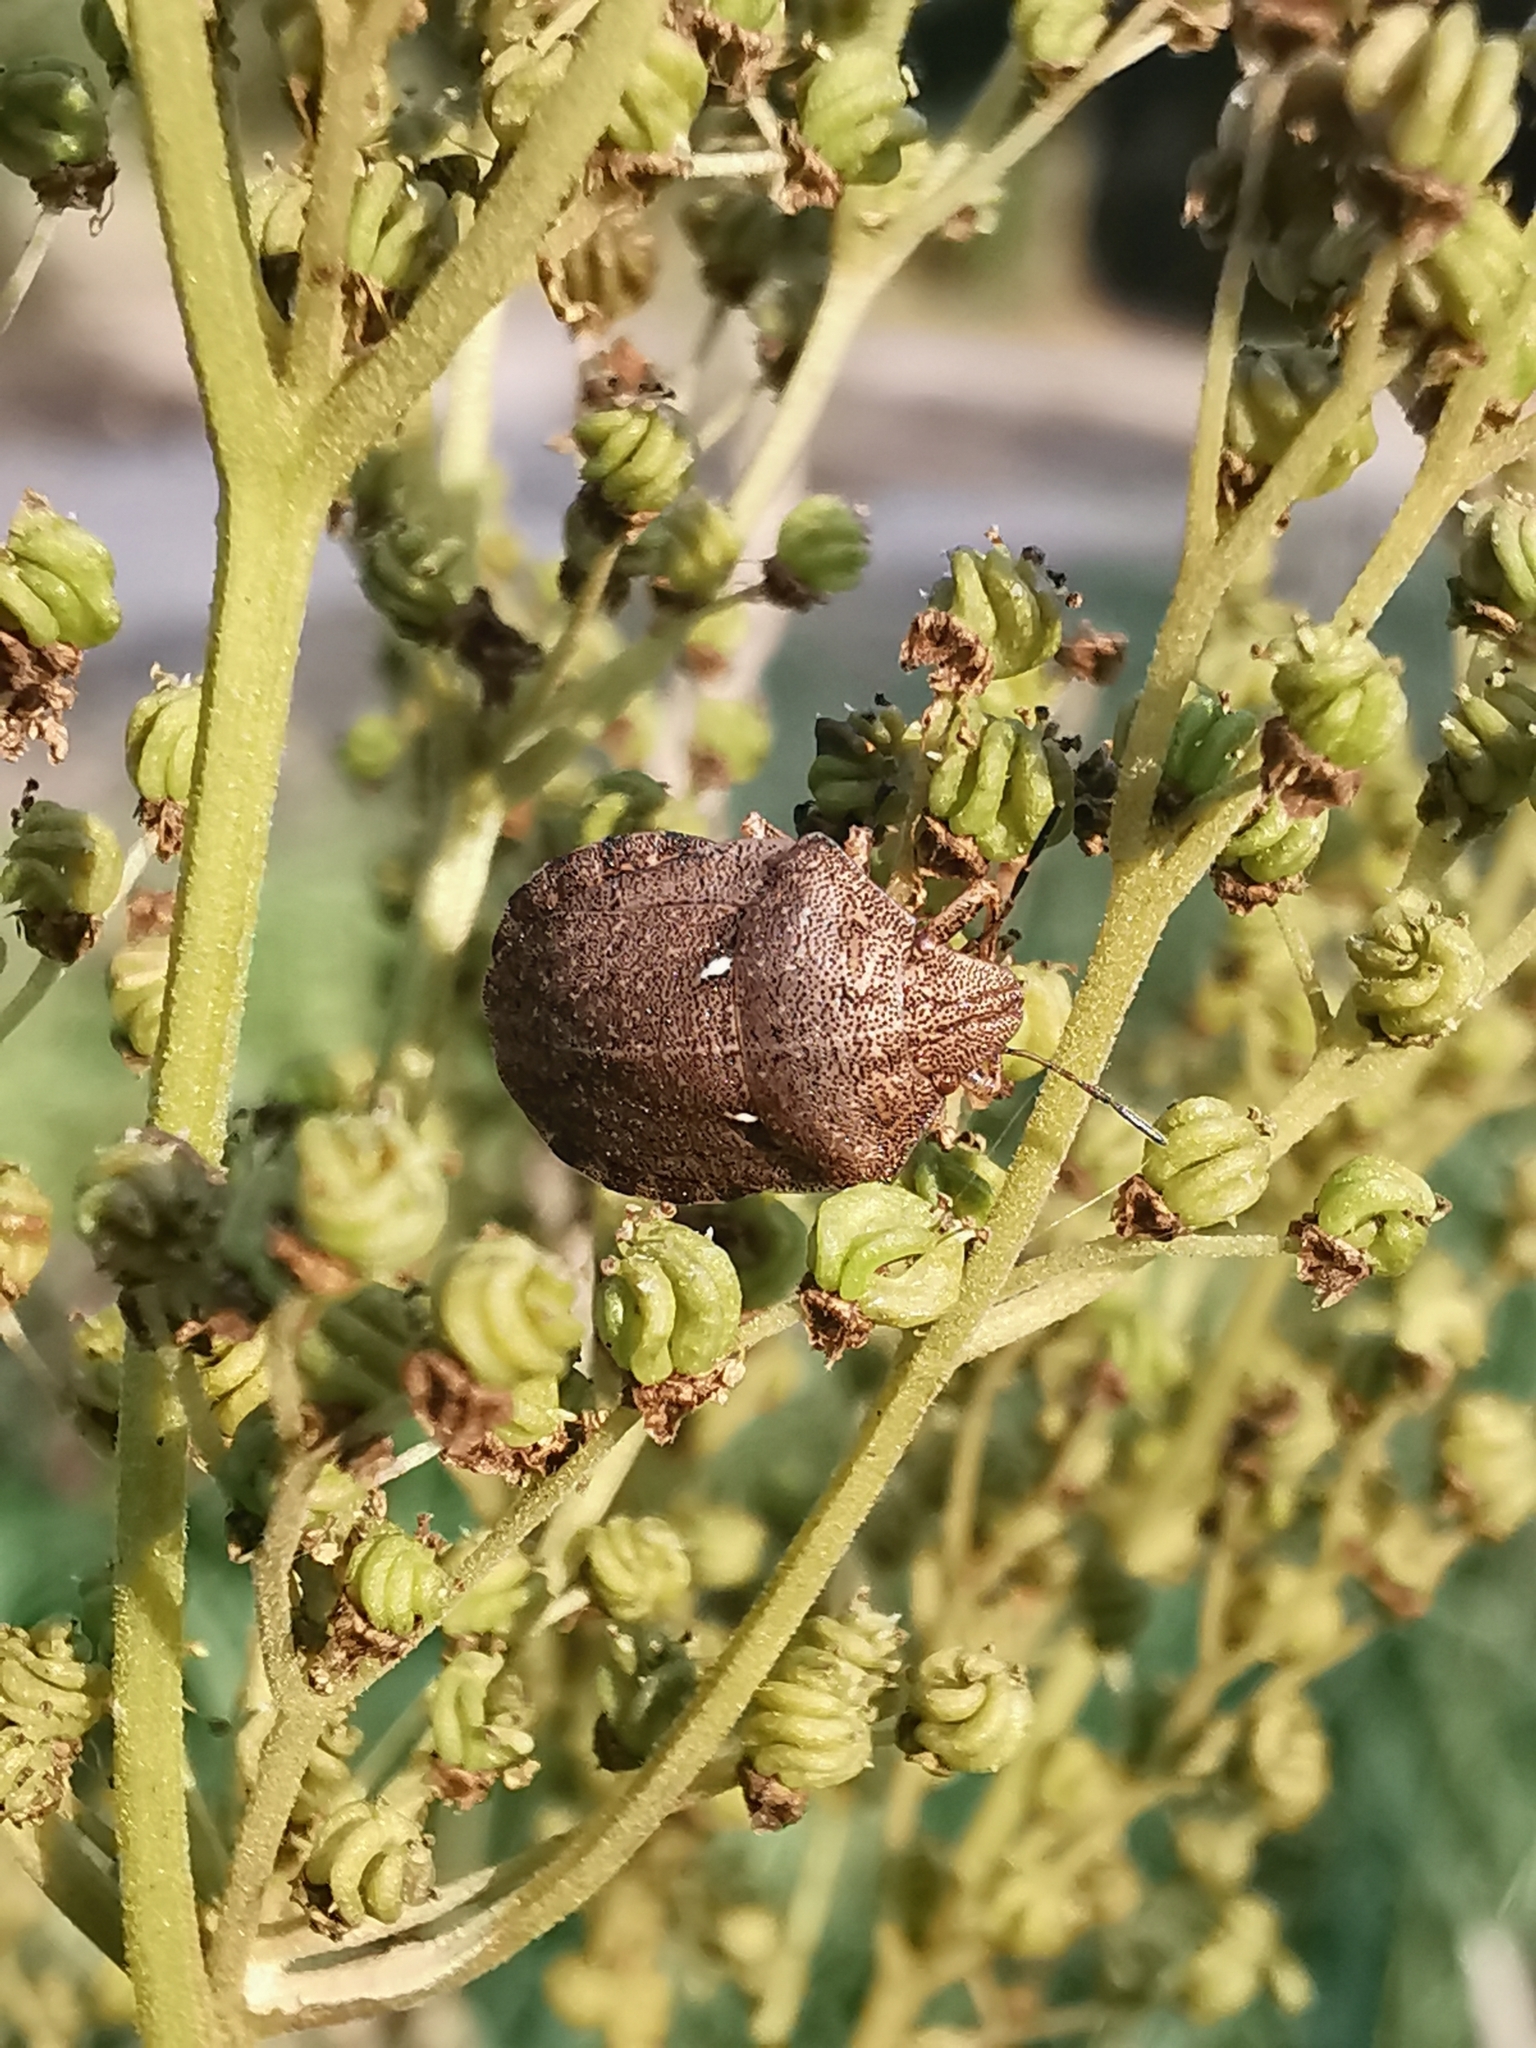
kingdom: Animalia
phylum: Arthropoda
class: Insecta
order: Hemiptera
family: Scutelleridae
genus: Eurygaster
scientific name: Eurygaster testudinaria
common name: Tortoise bug
